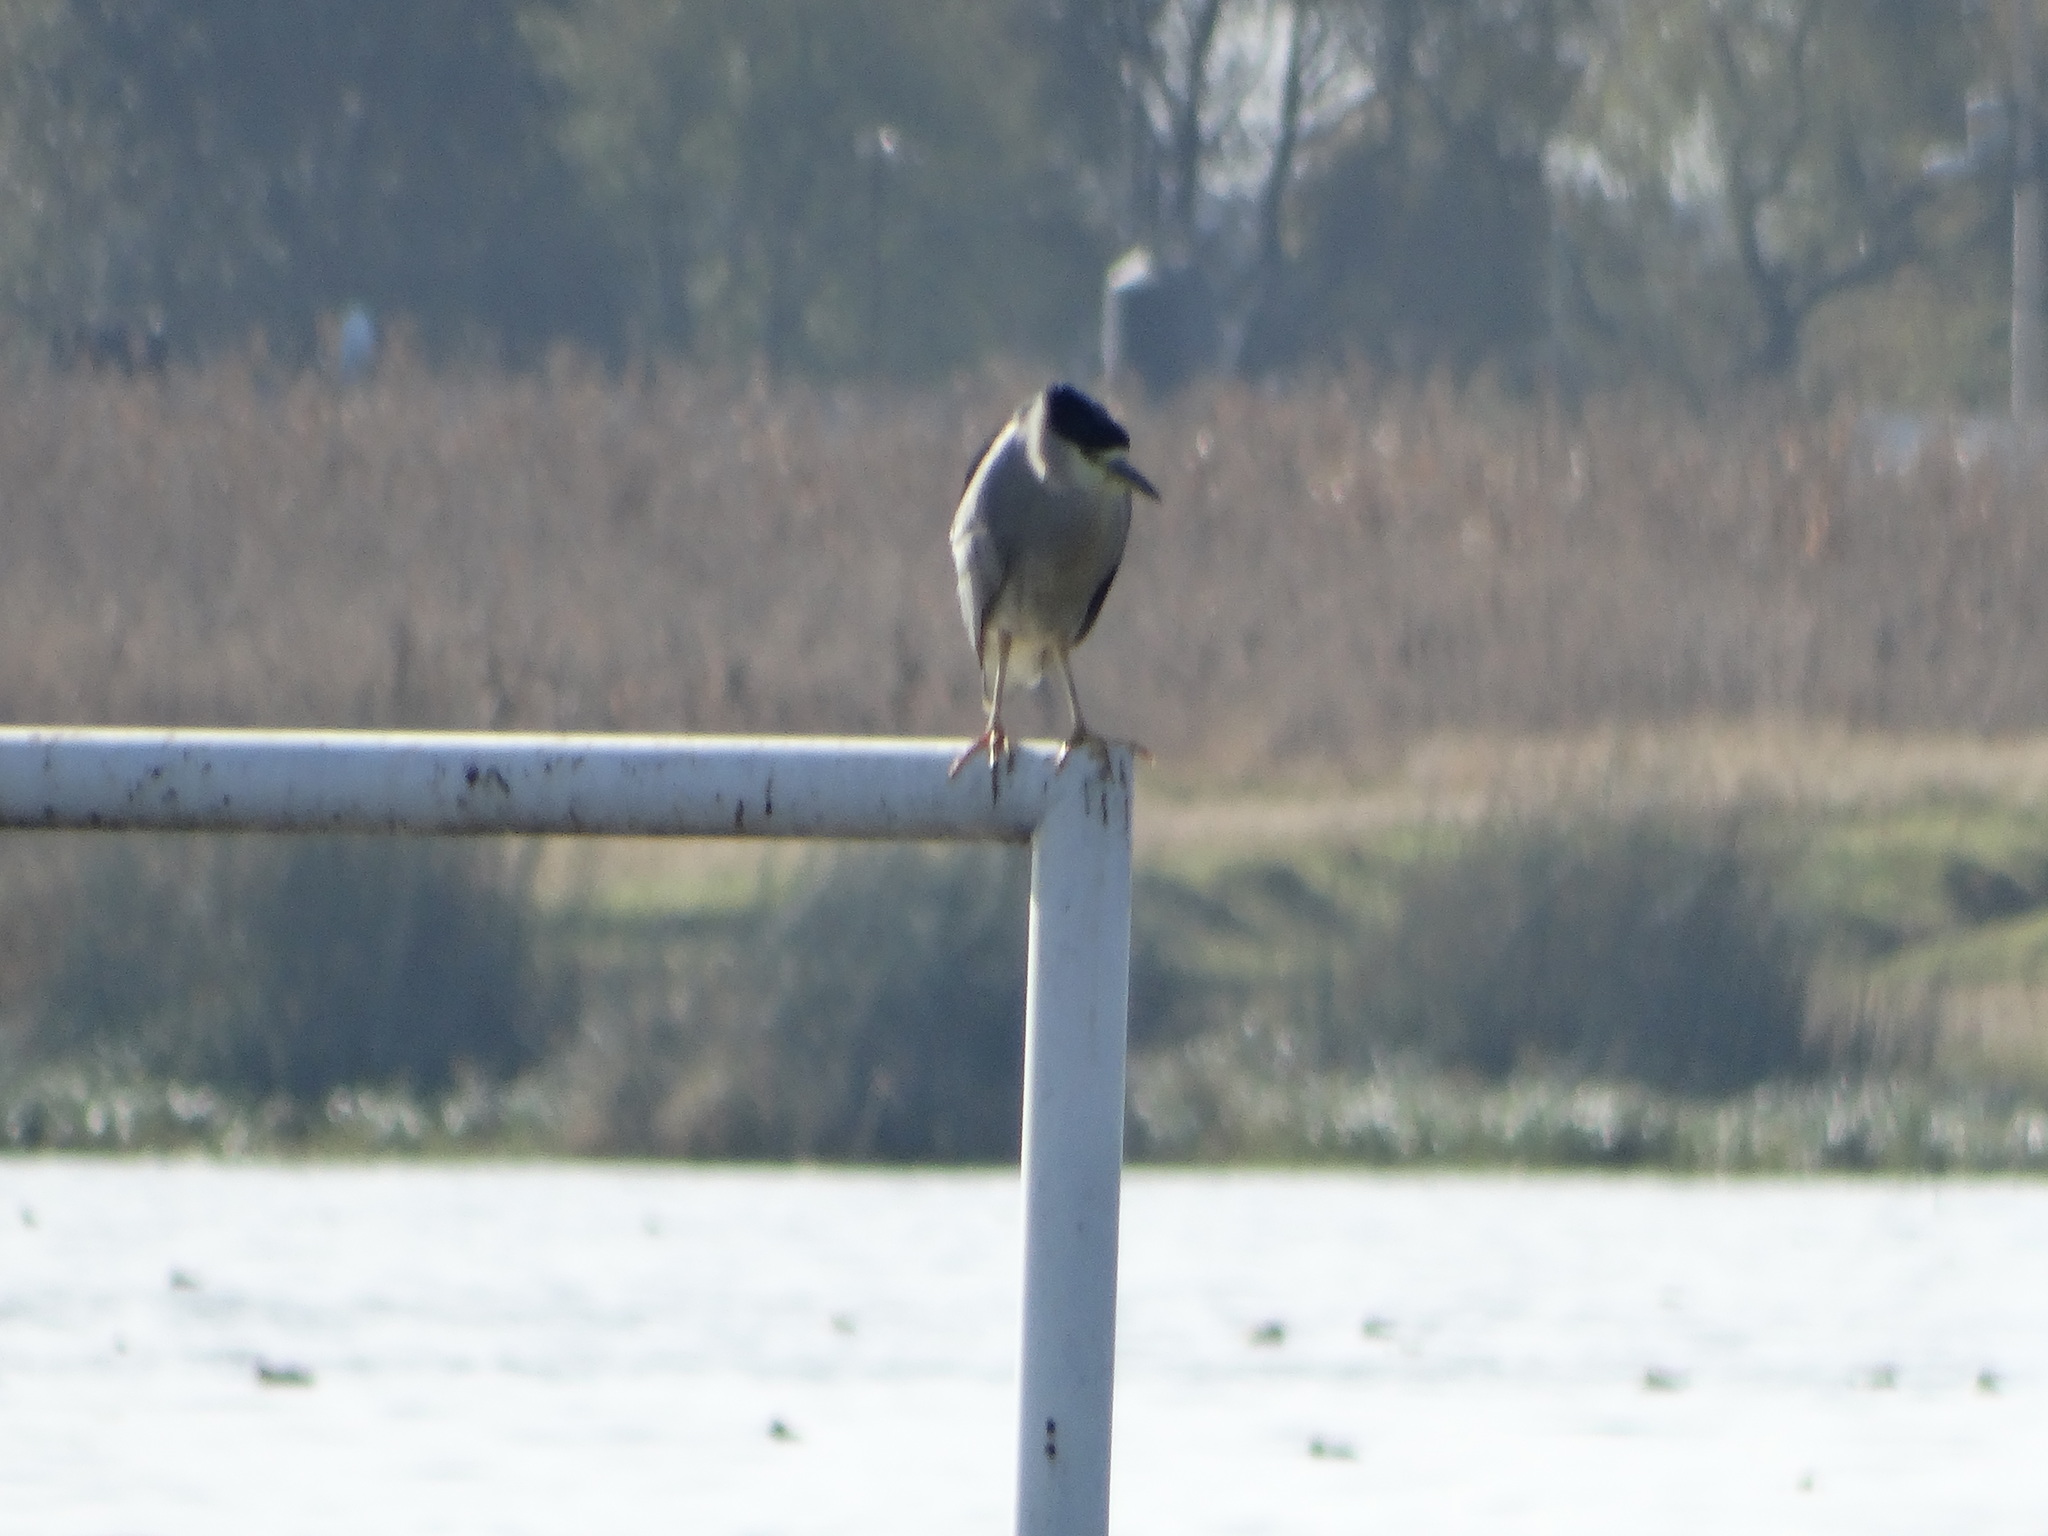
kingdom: Animalia
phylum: Chordata
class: Aves
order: Pelecaniformes
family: Ardeidae
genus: Nycticorax
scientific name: Nycticorax nycticorax
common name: Black-crowned night heron
